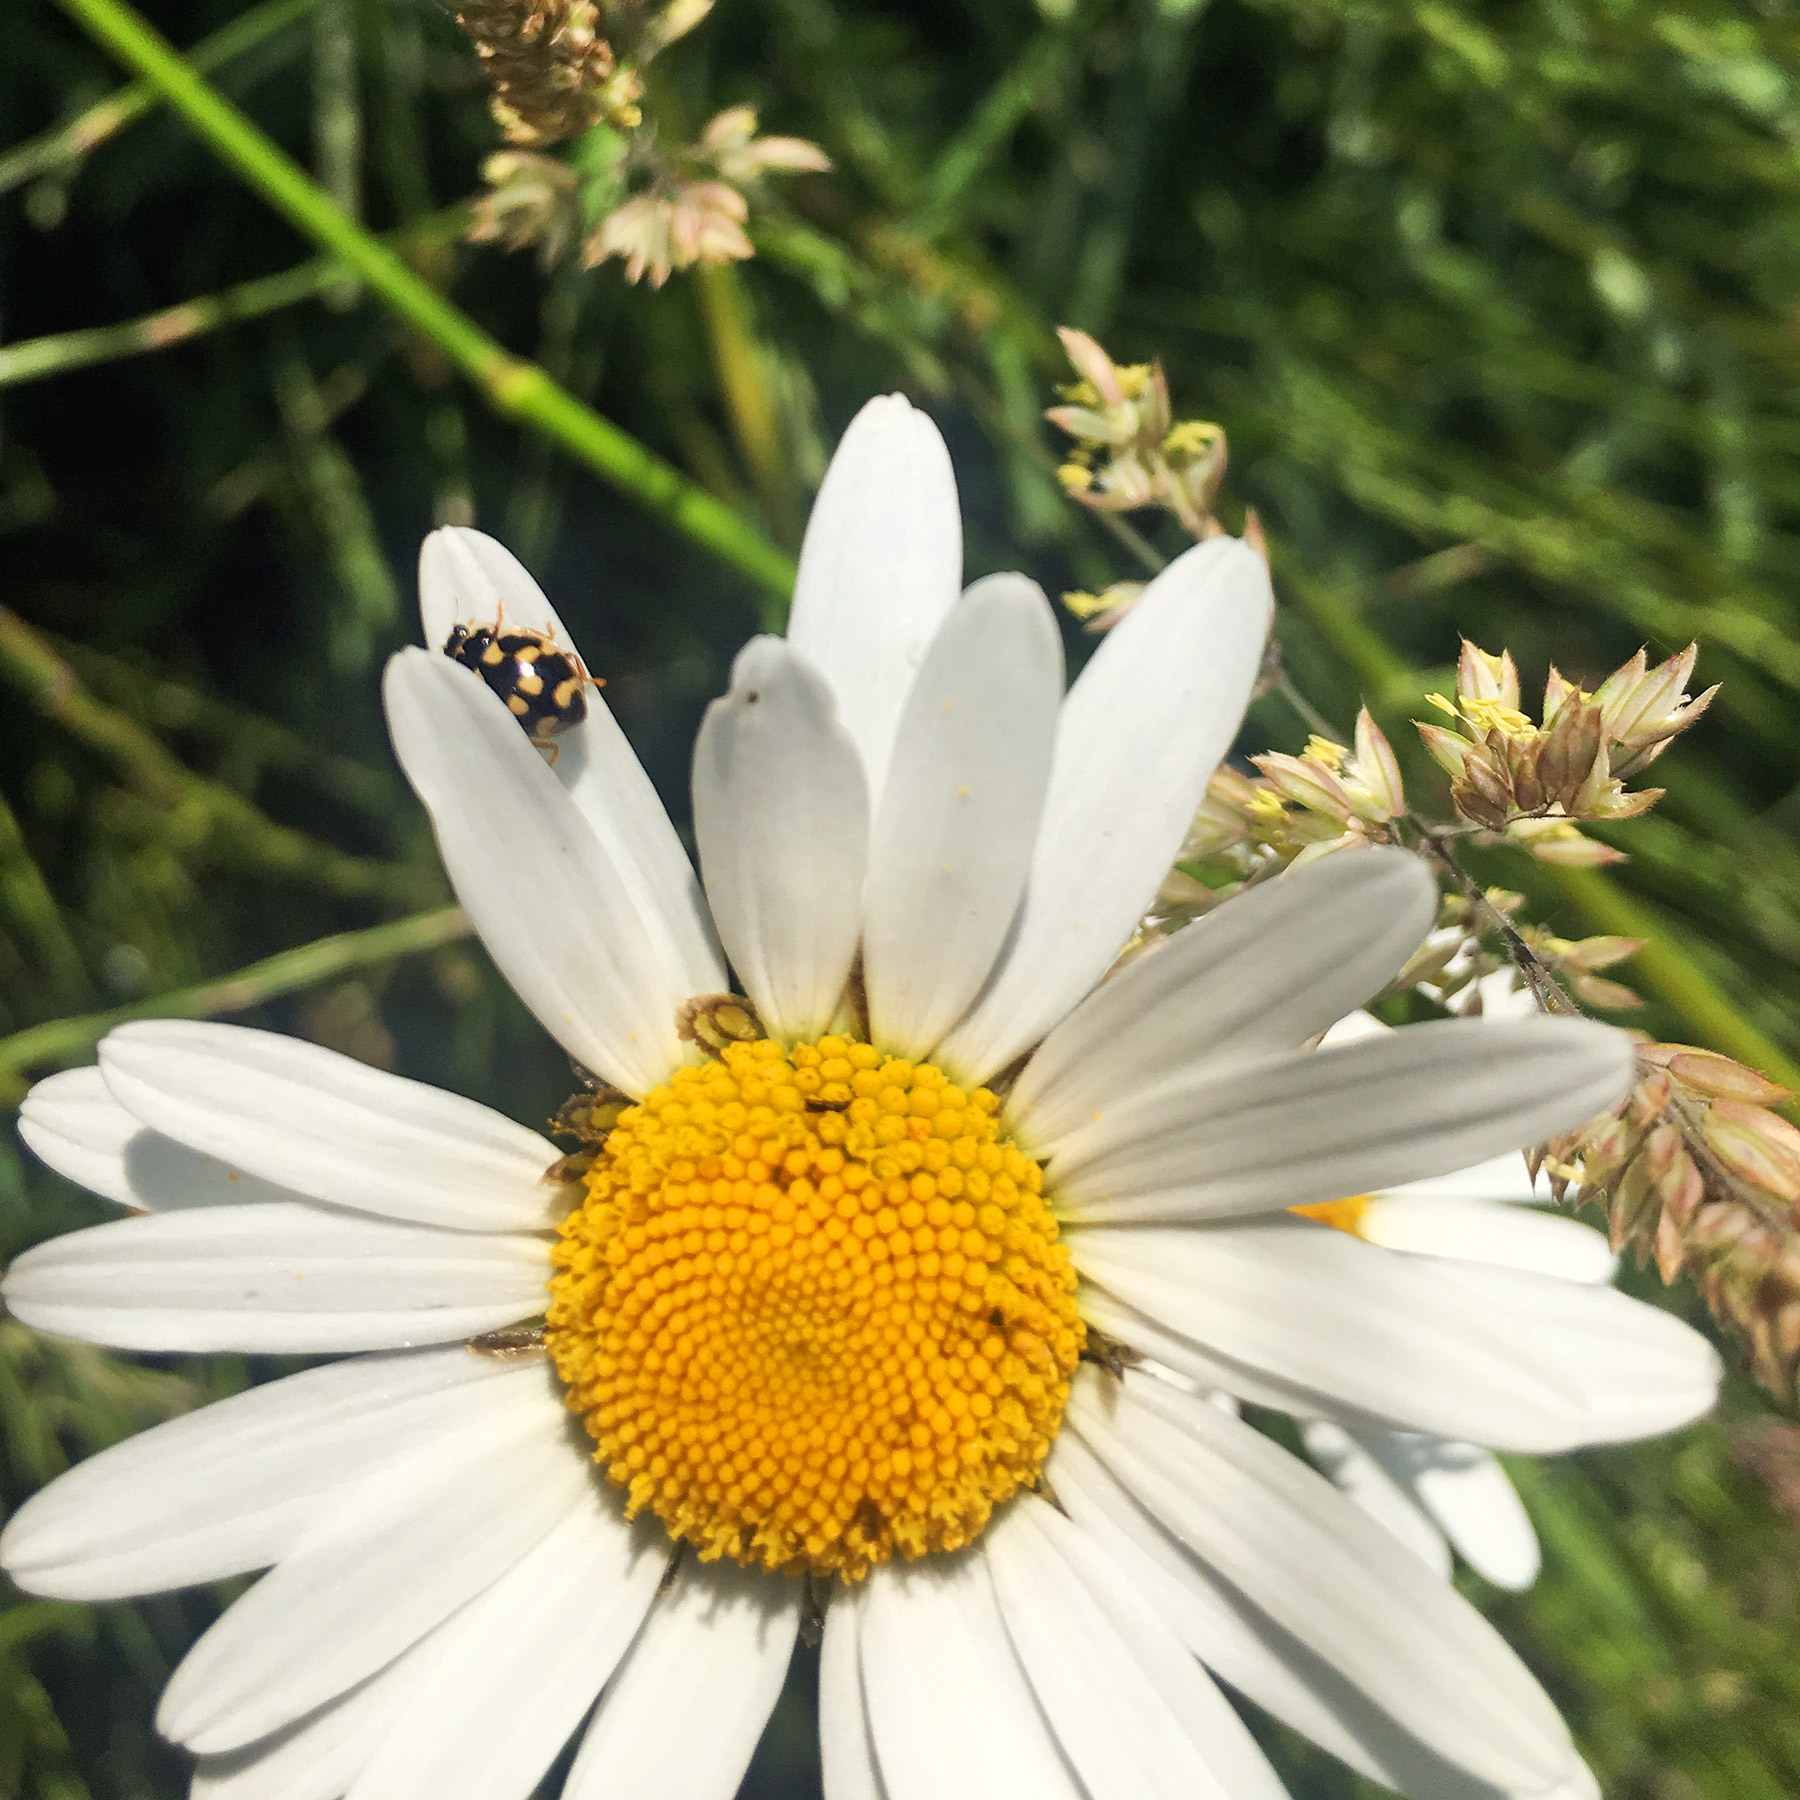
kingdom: Animalia
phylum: Arthropoda
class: Insecta
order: Coleoptera
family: Coccinellidae
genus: Propylaea
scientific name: Propylaea quatuordecimpunctata
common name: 14-spotted ladybird beetle
